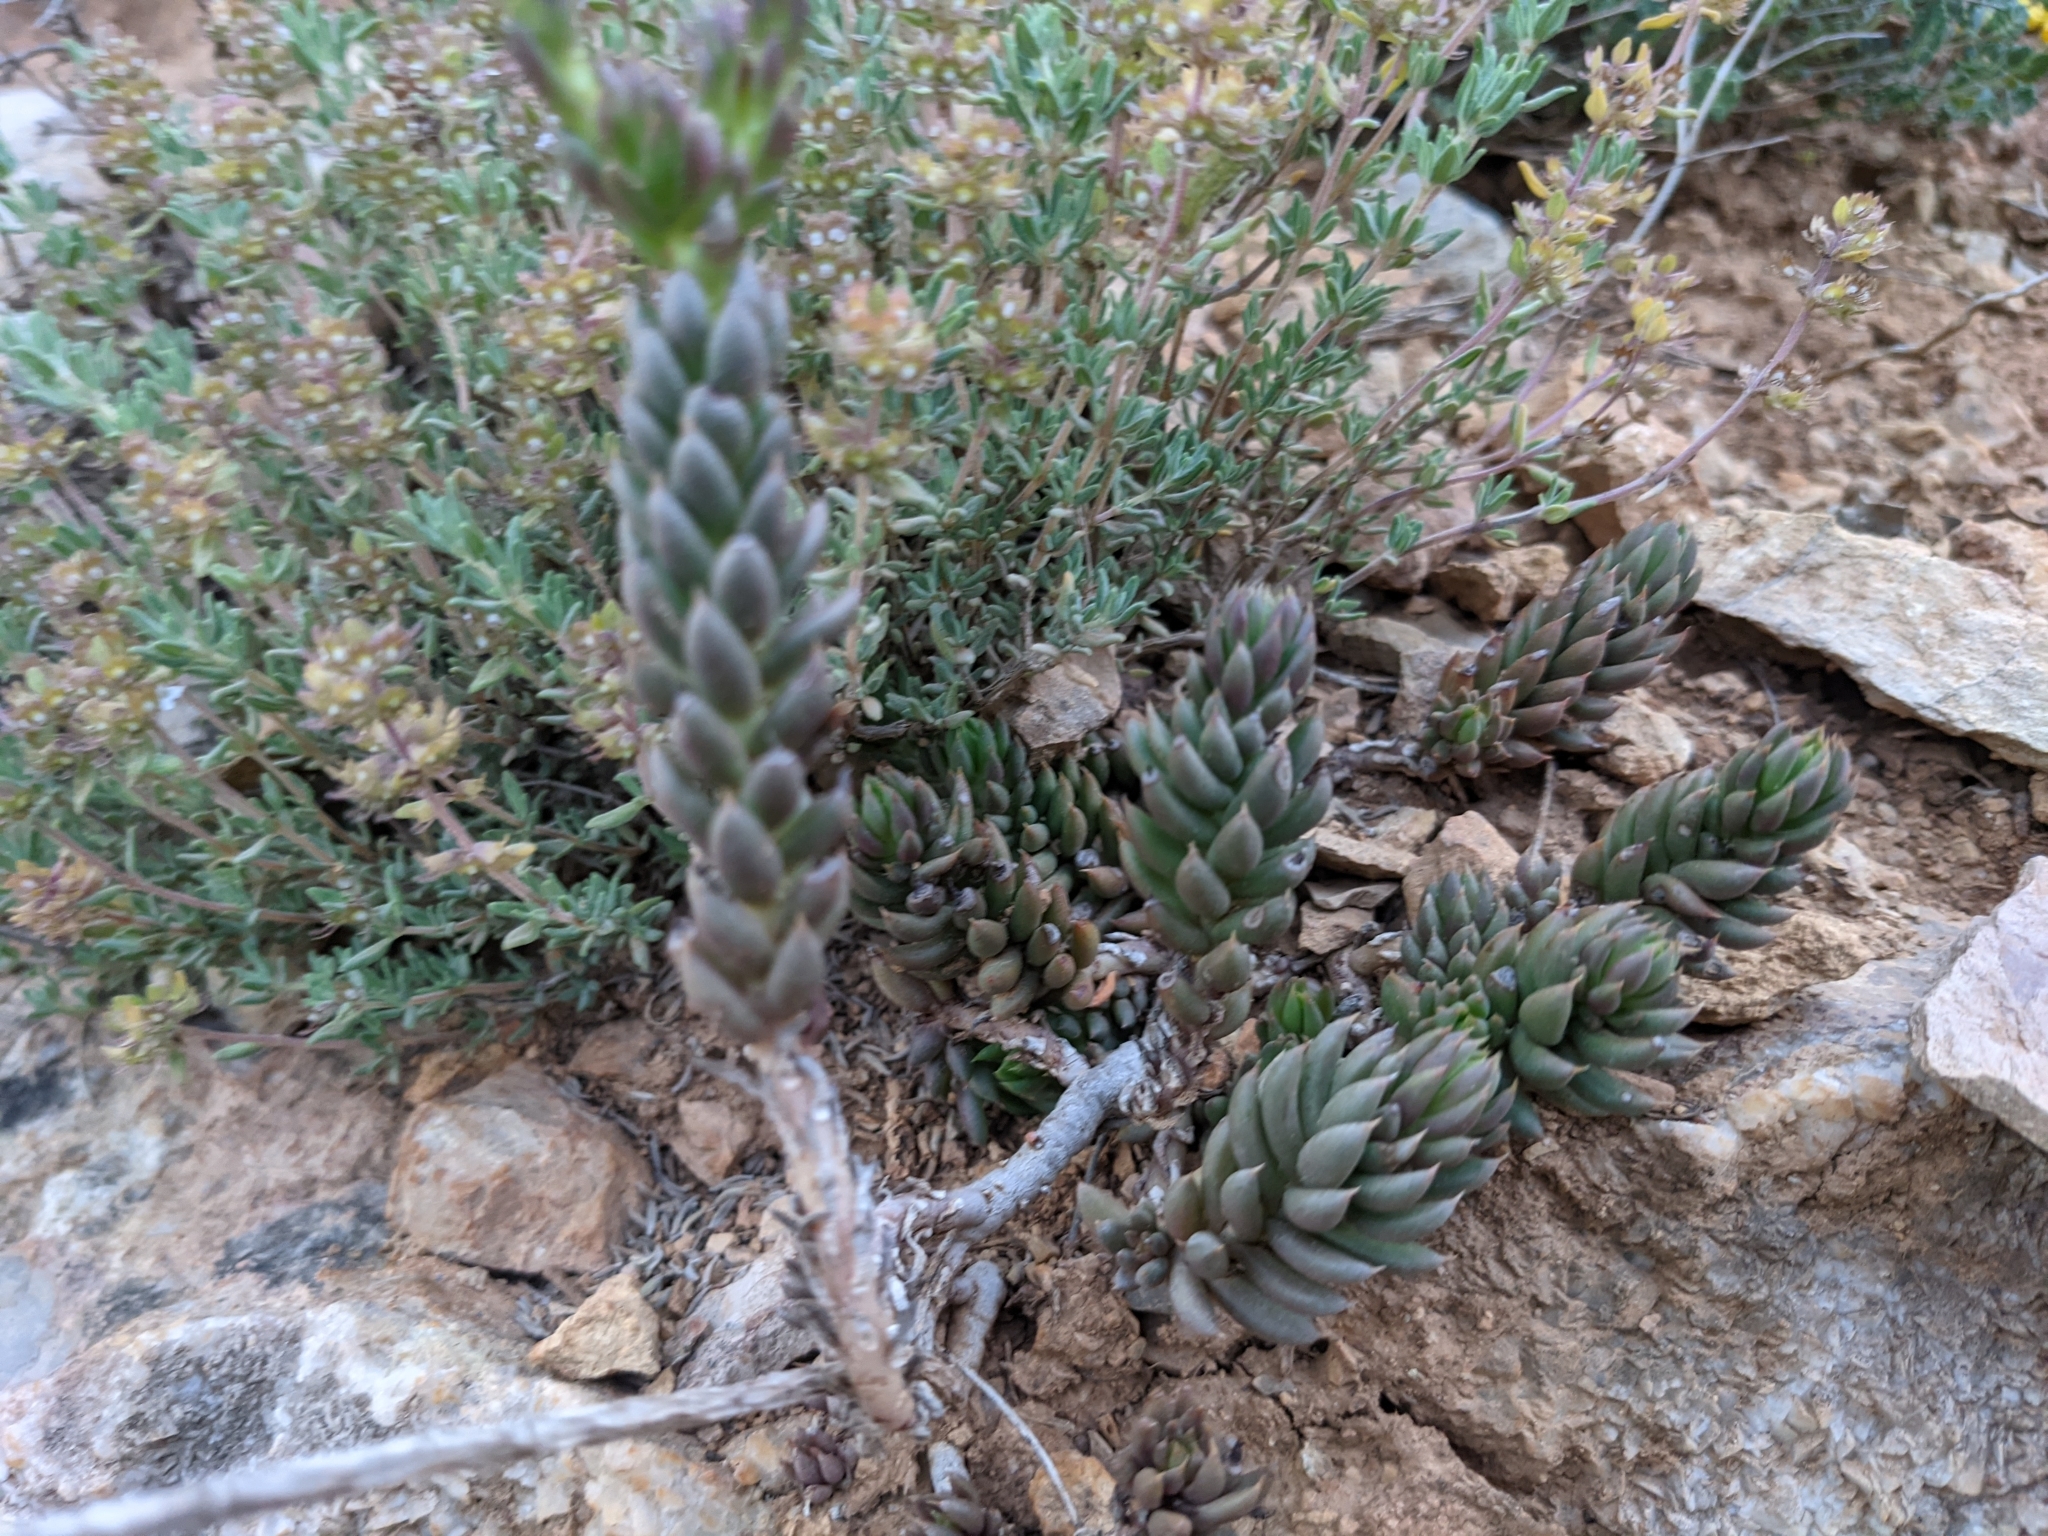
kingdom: Plantae
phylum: Tracheophyta
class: Magnoliopsida
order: Saxifragales
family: Crassulaceae
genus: Petrosedum
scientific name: Petrosedum sediforme
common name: Pale stonecrop
